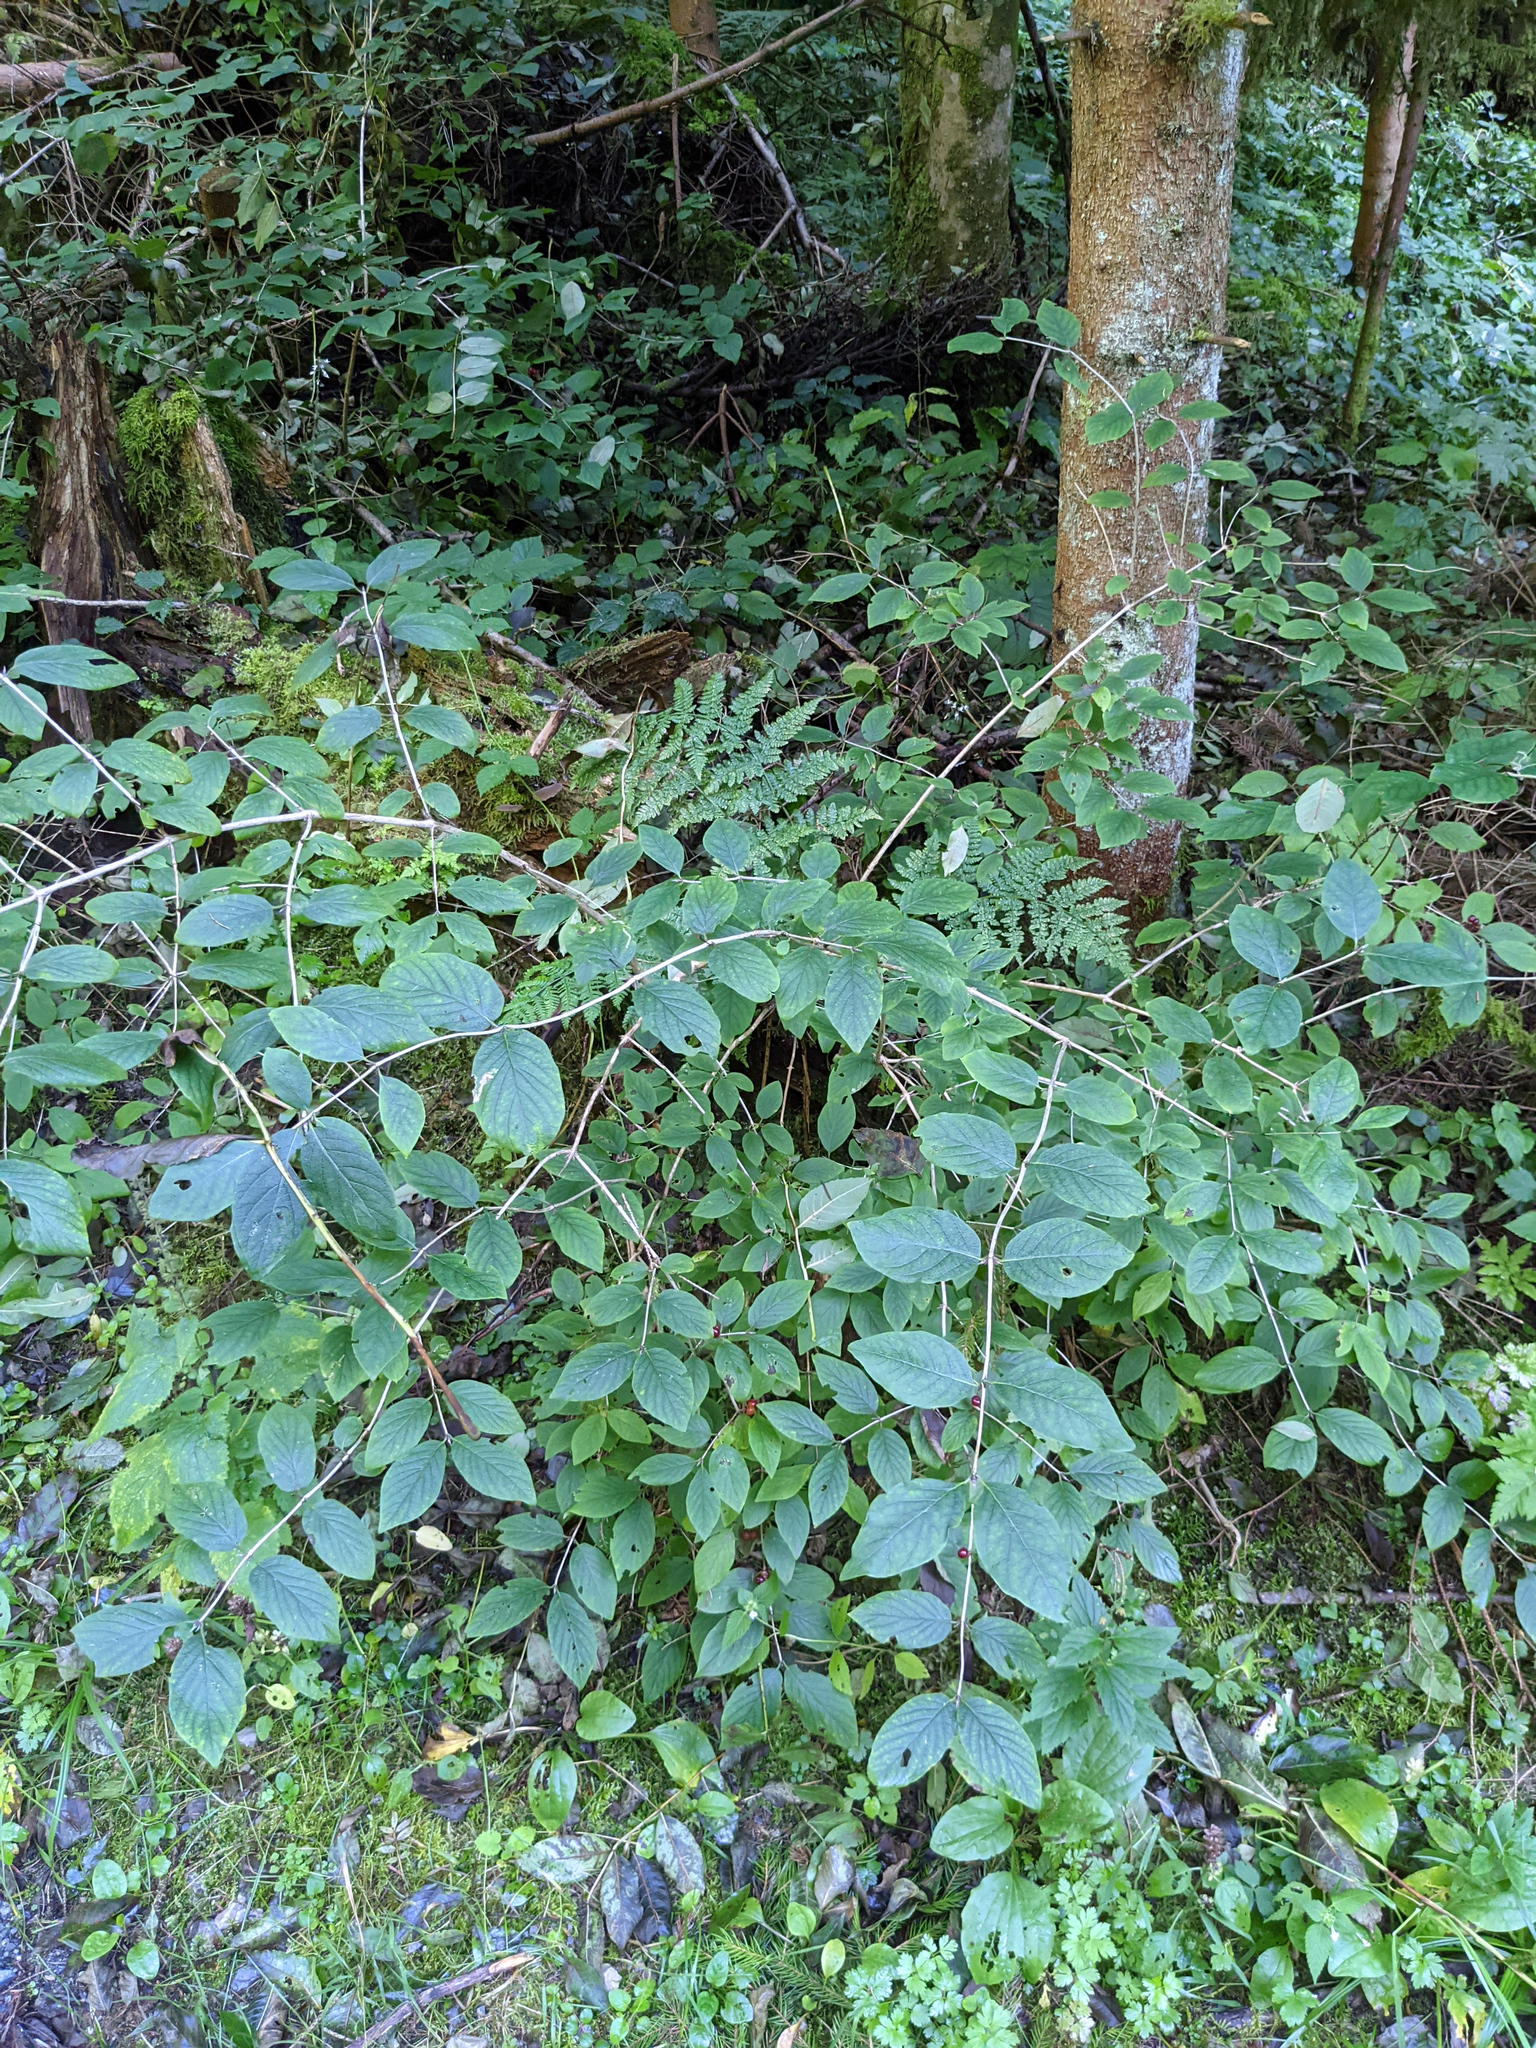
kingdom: Plantae
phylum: Tracheophyta
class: Magnoliopsida
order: Dipsacales
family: Caprifoliaceae
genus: Lonicera
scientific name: Lonicera xylosteum
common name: Fly honeysuckle
